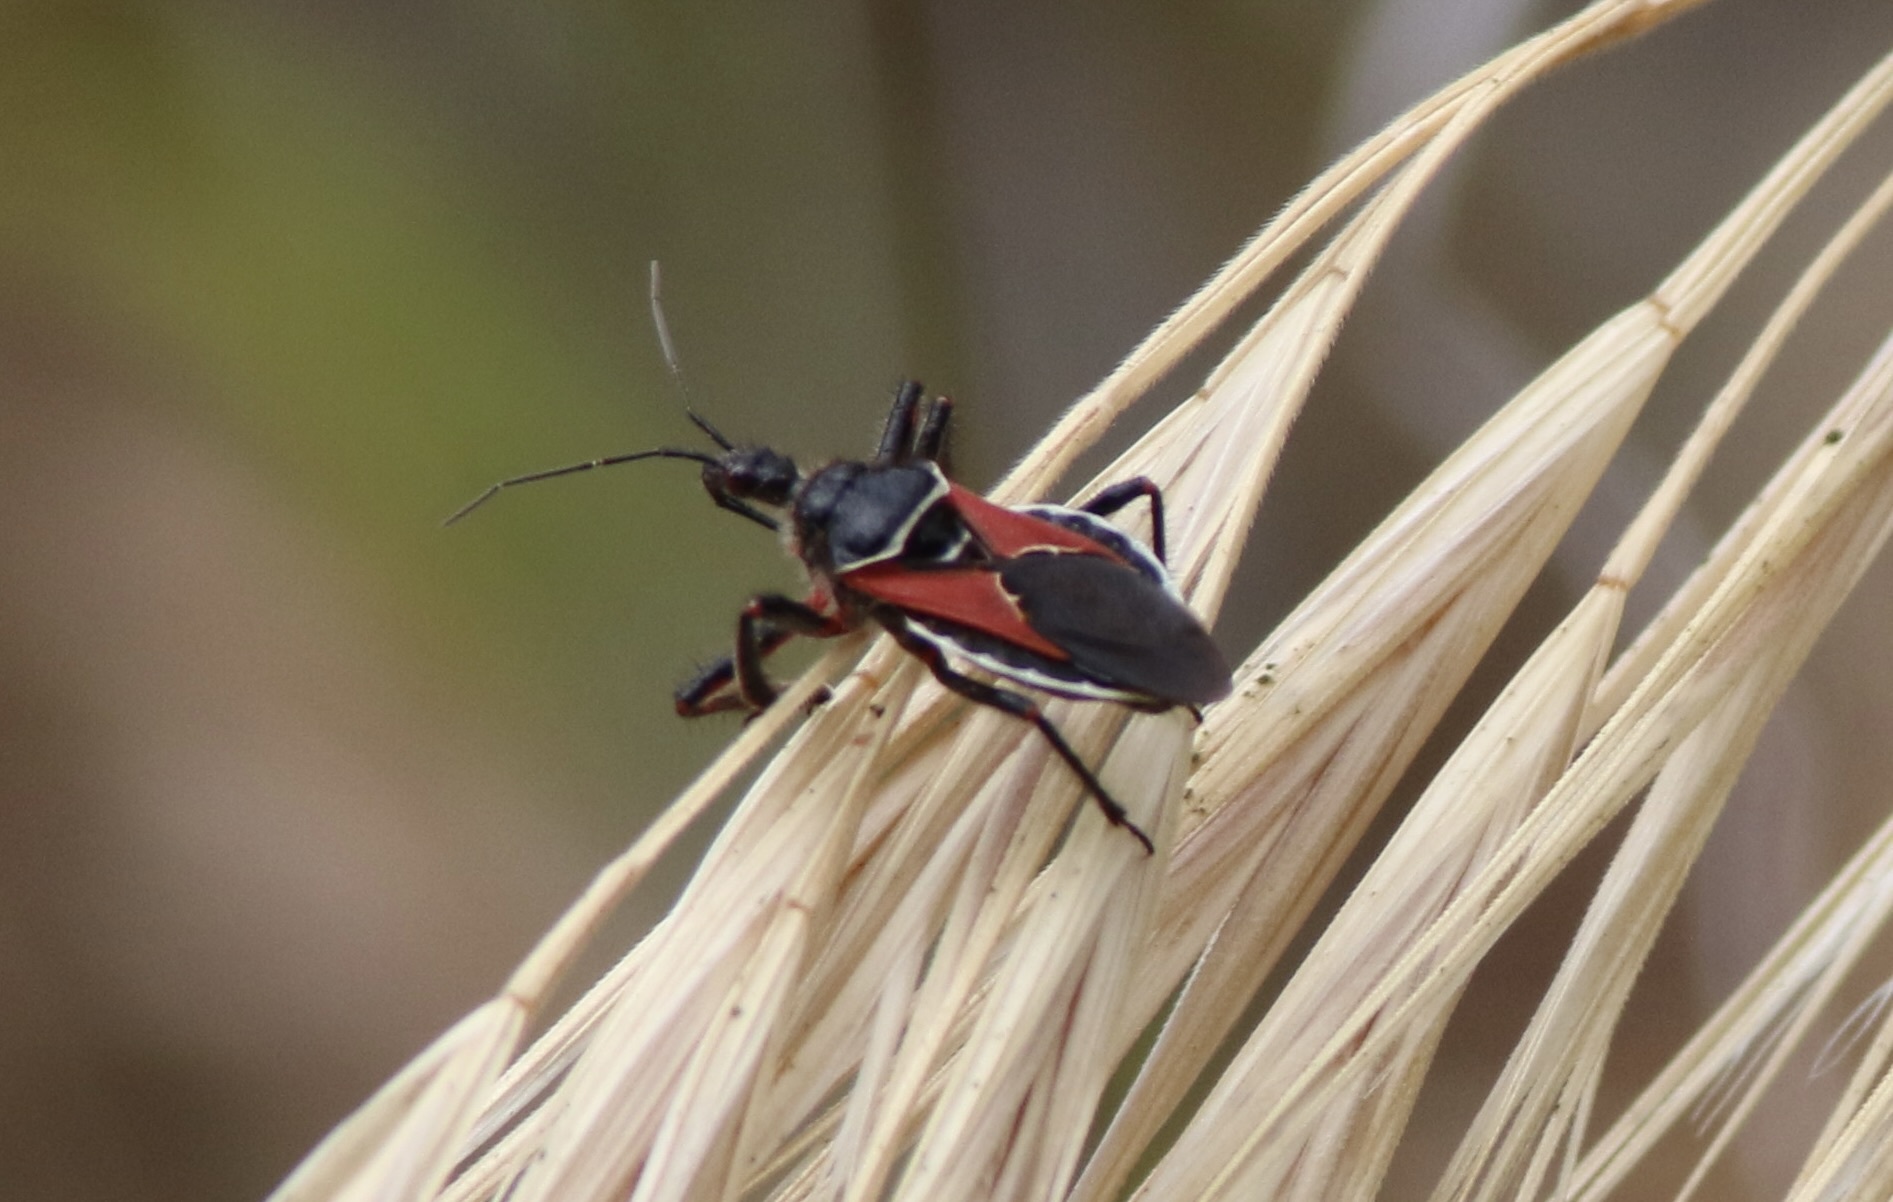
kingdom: Animalia
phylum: Arthropoda
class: Insecta
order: Hemiptera
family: Reduviidae
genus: Apiomerus
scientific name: Apiomerus californicus
